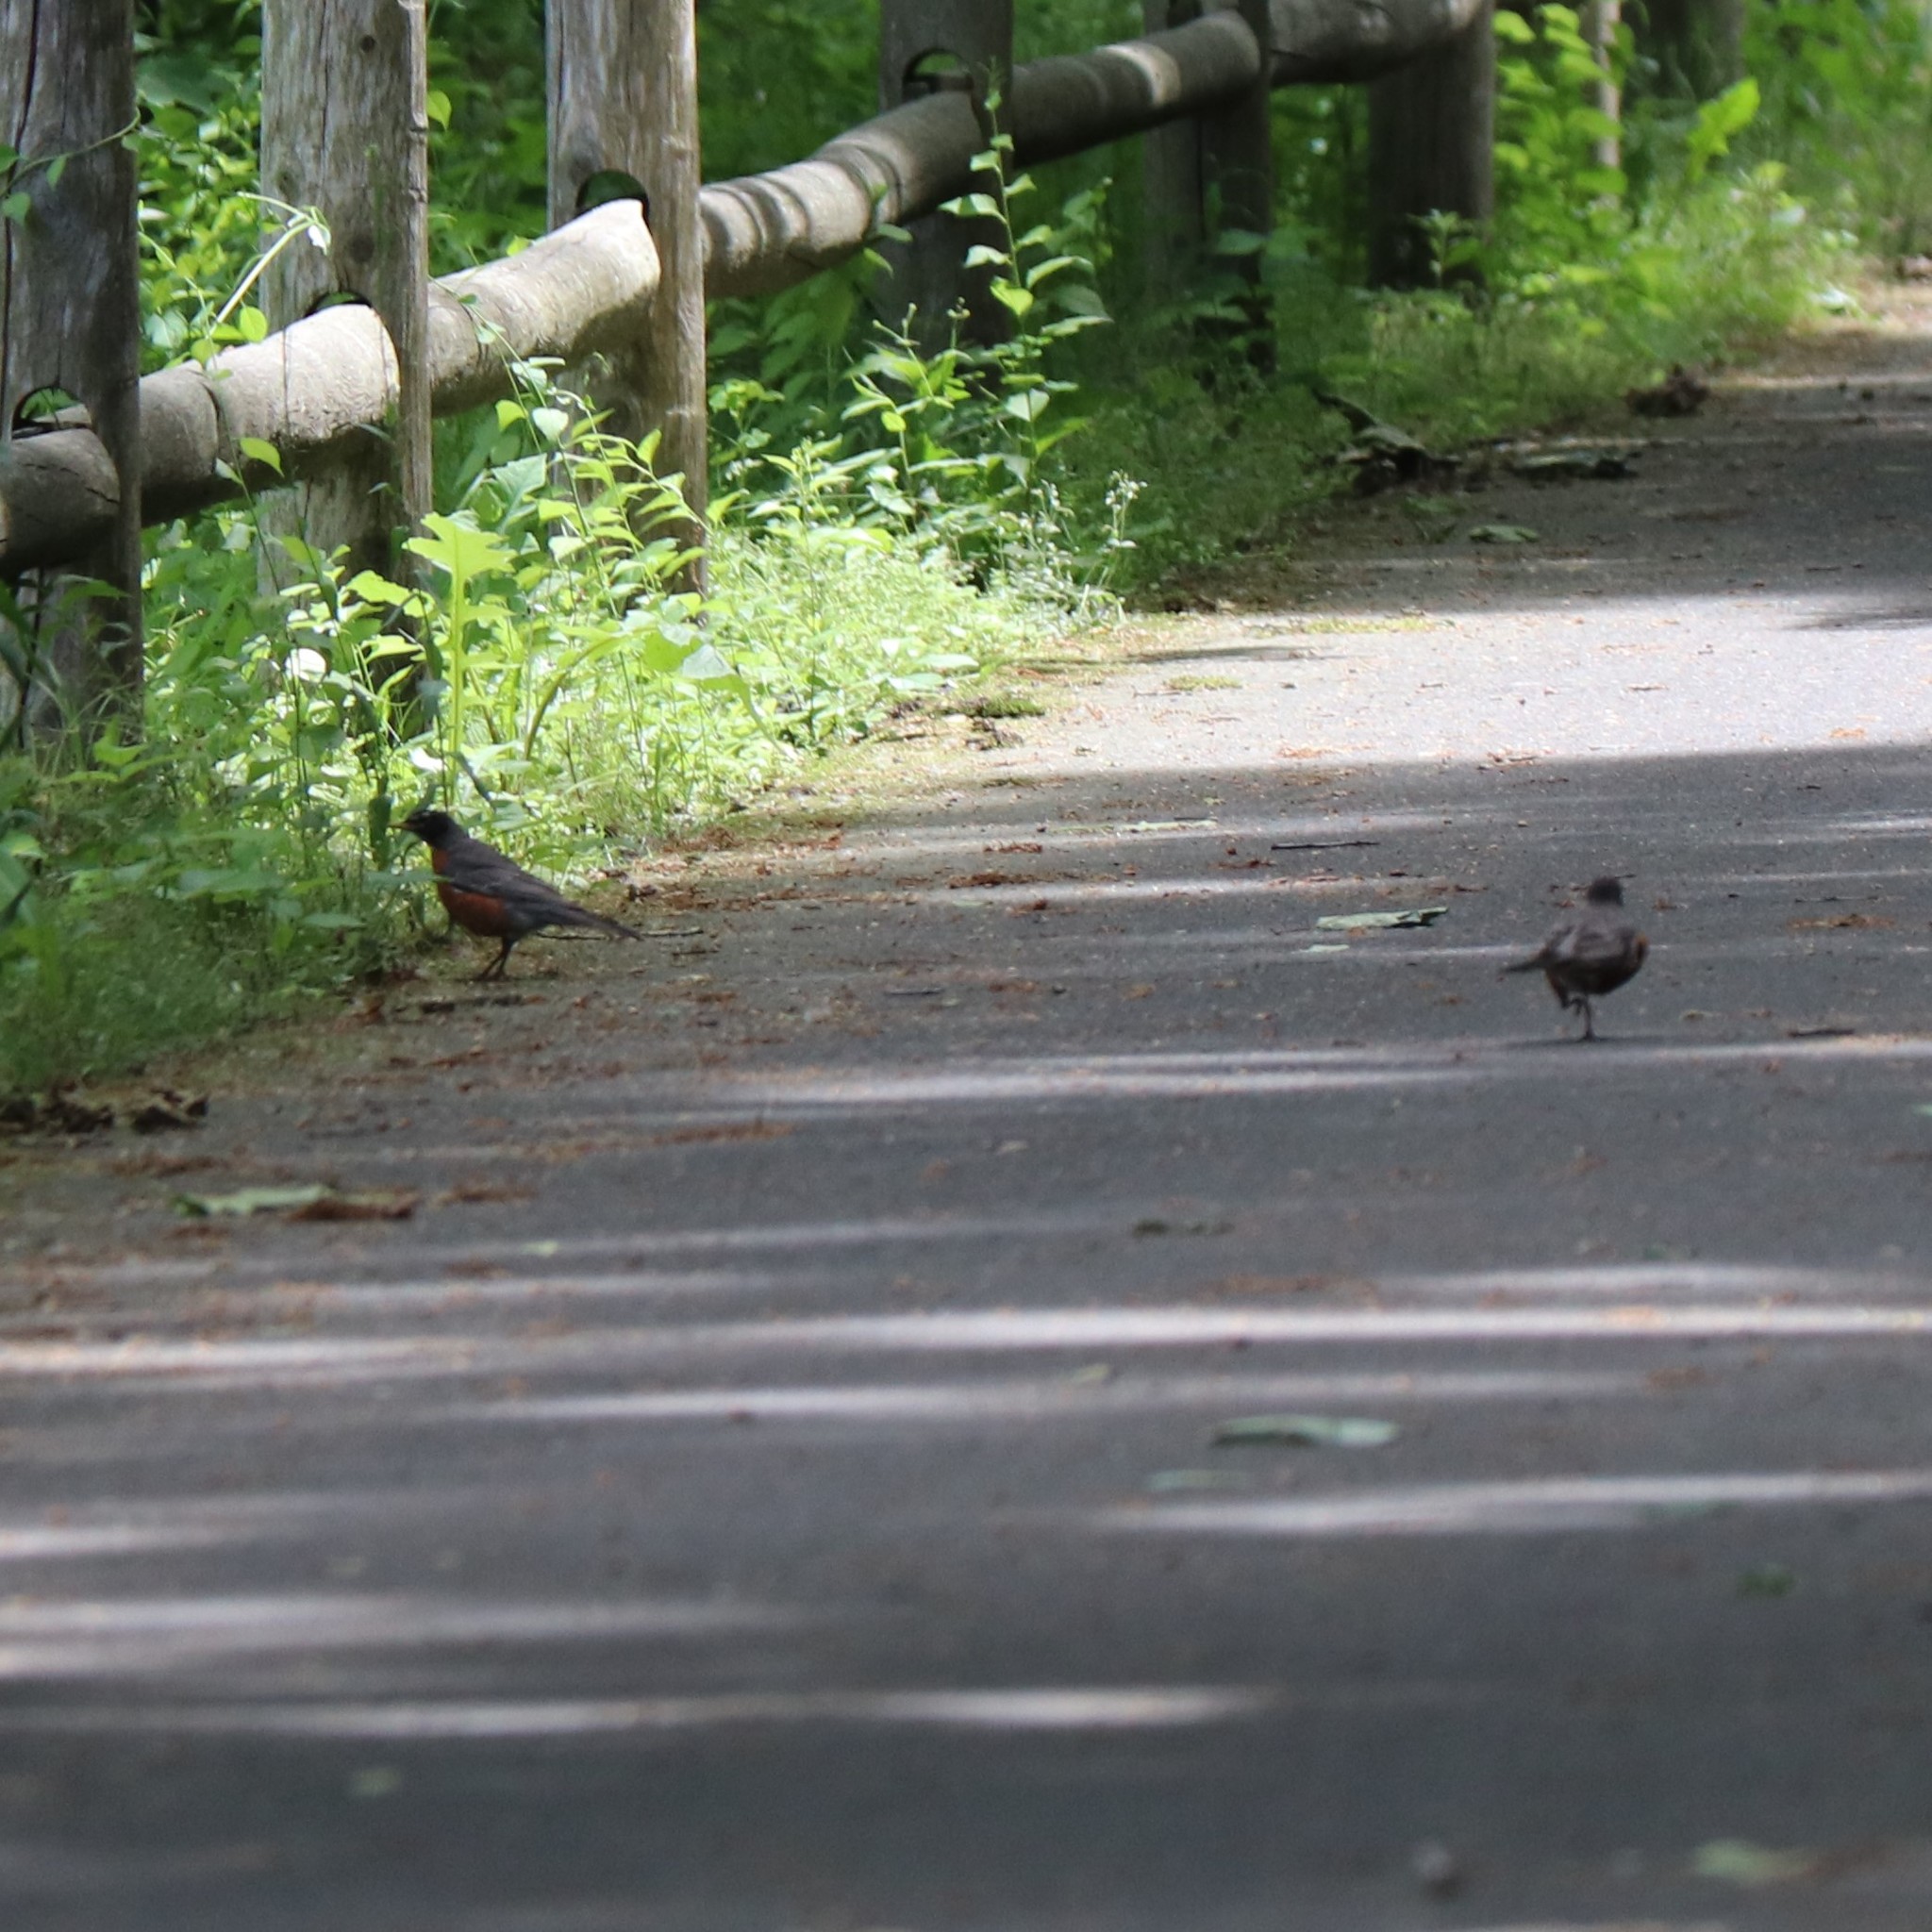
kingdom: Animalia
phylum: Chordata
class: Aves
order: Passeriformes
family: Turdidae
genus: Turdus
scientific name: Turdus migratorius
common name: American robin
